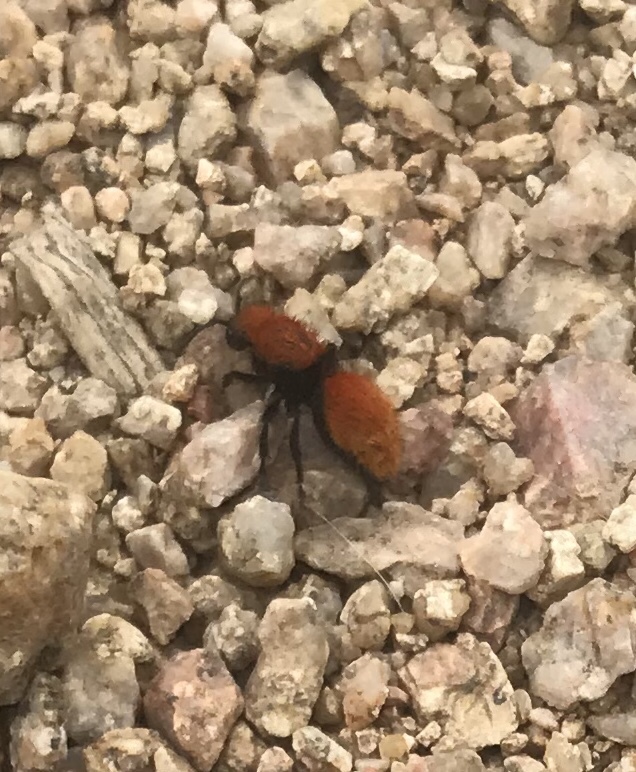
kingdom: Animalia
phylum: Arthropoda
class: Insecta
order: Hymenoptera
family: Mutillidae
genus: Dasymutilla
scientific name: Dasymutilla vestita
